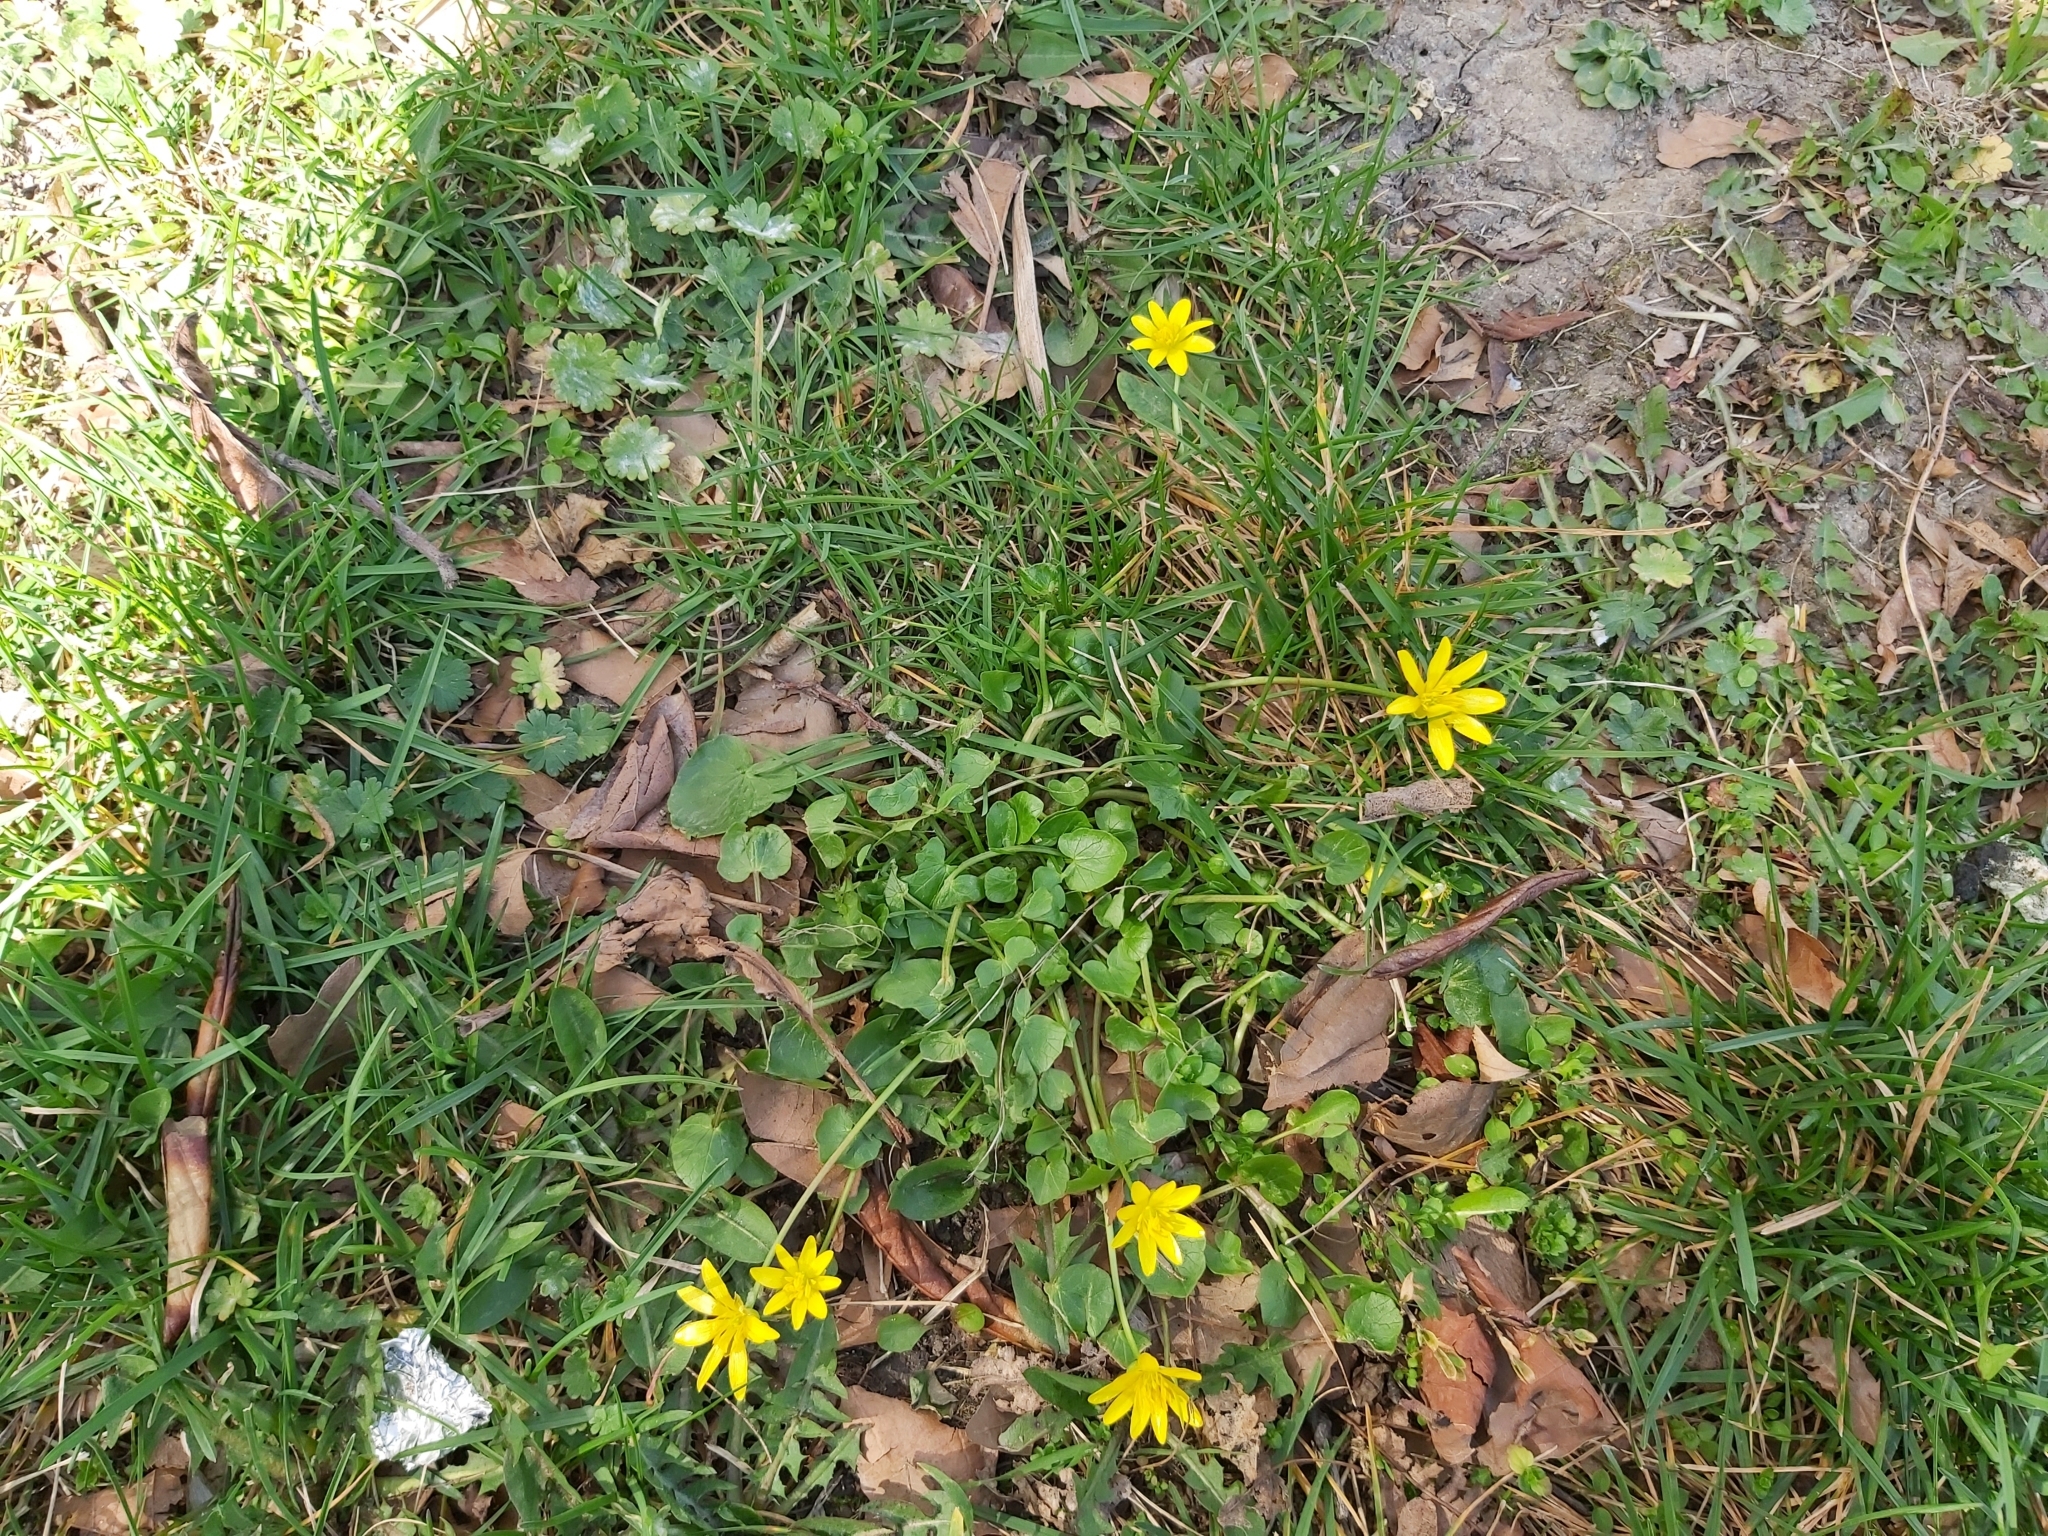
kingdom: Plantae
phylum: Tracheophyta
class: Magnoliopsida
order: Ranunculales
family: Ranunculaceae
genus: Ficaria
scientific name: Ficaria verna
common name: Lesser celandine
